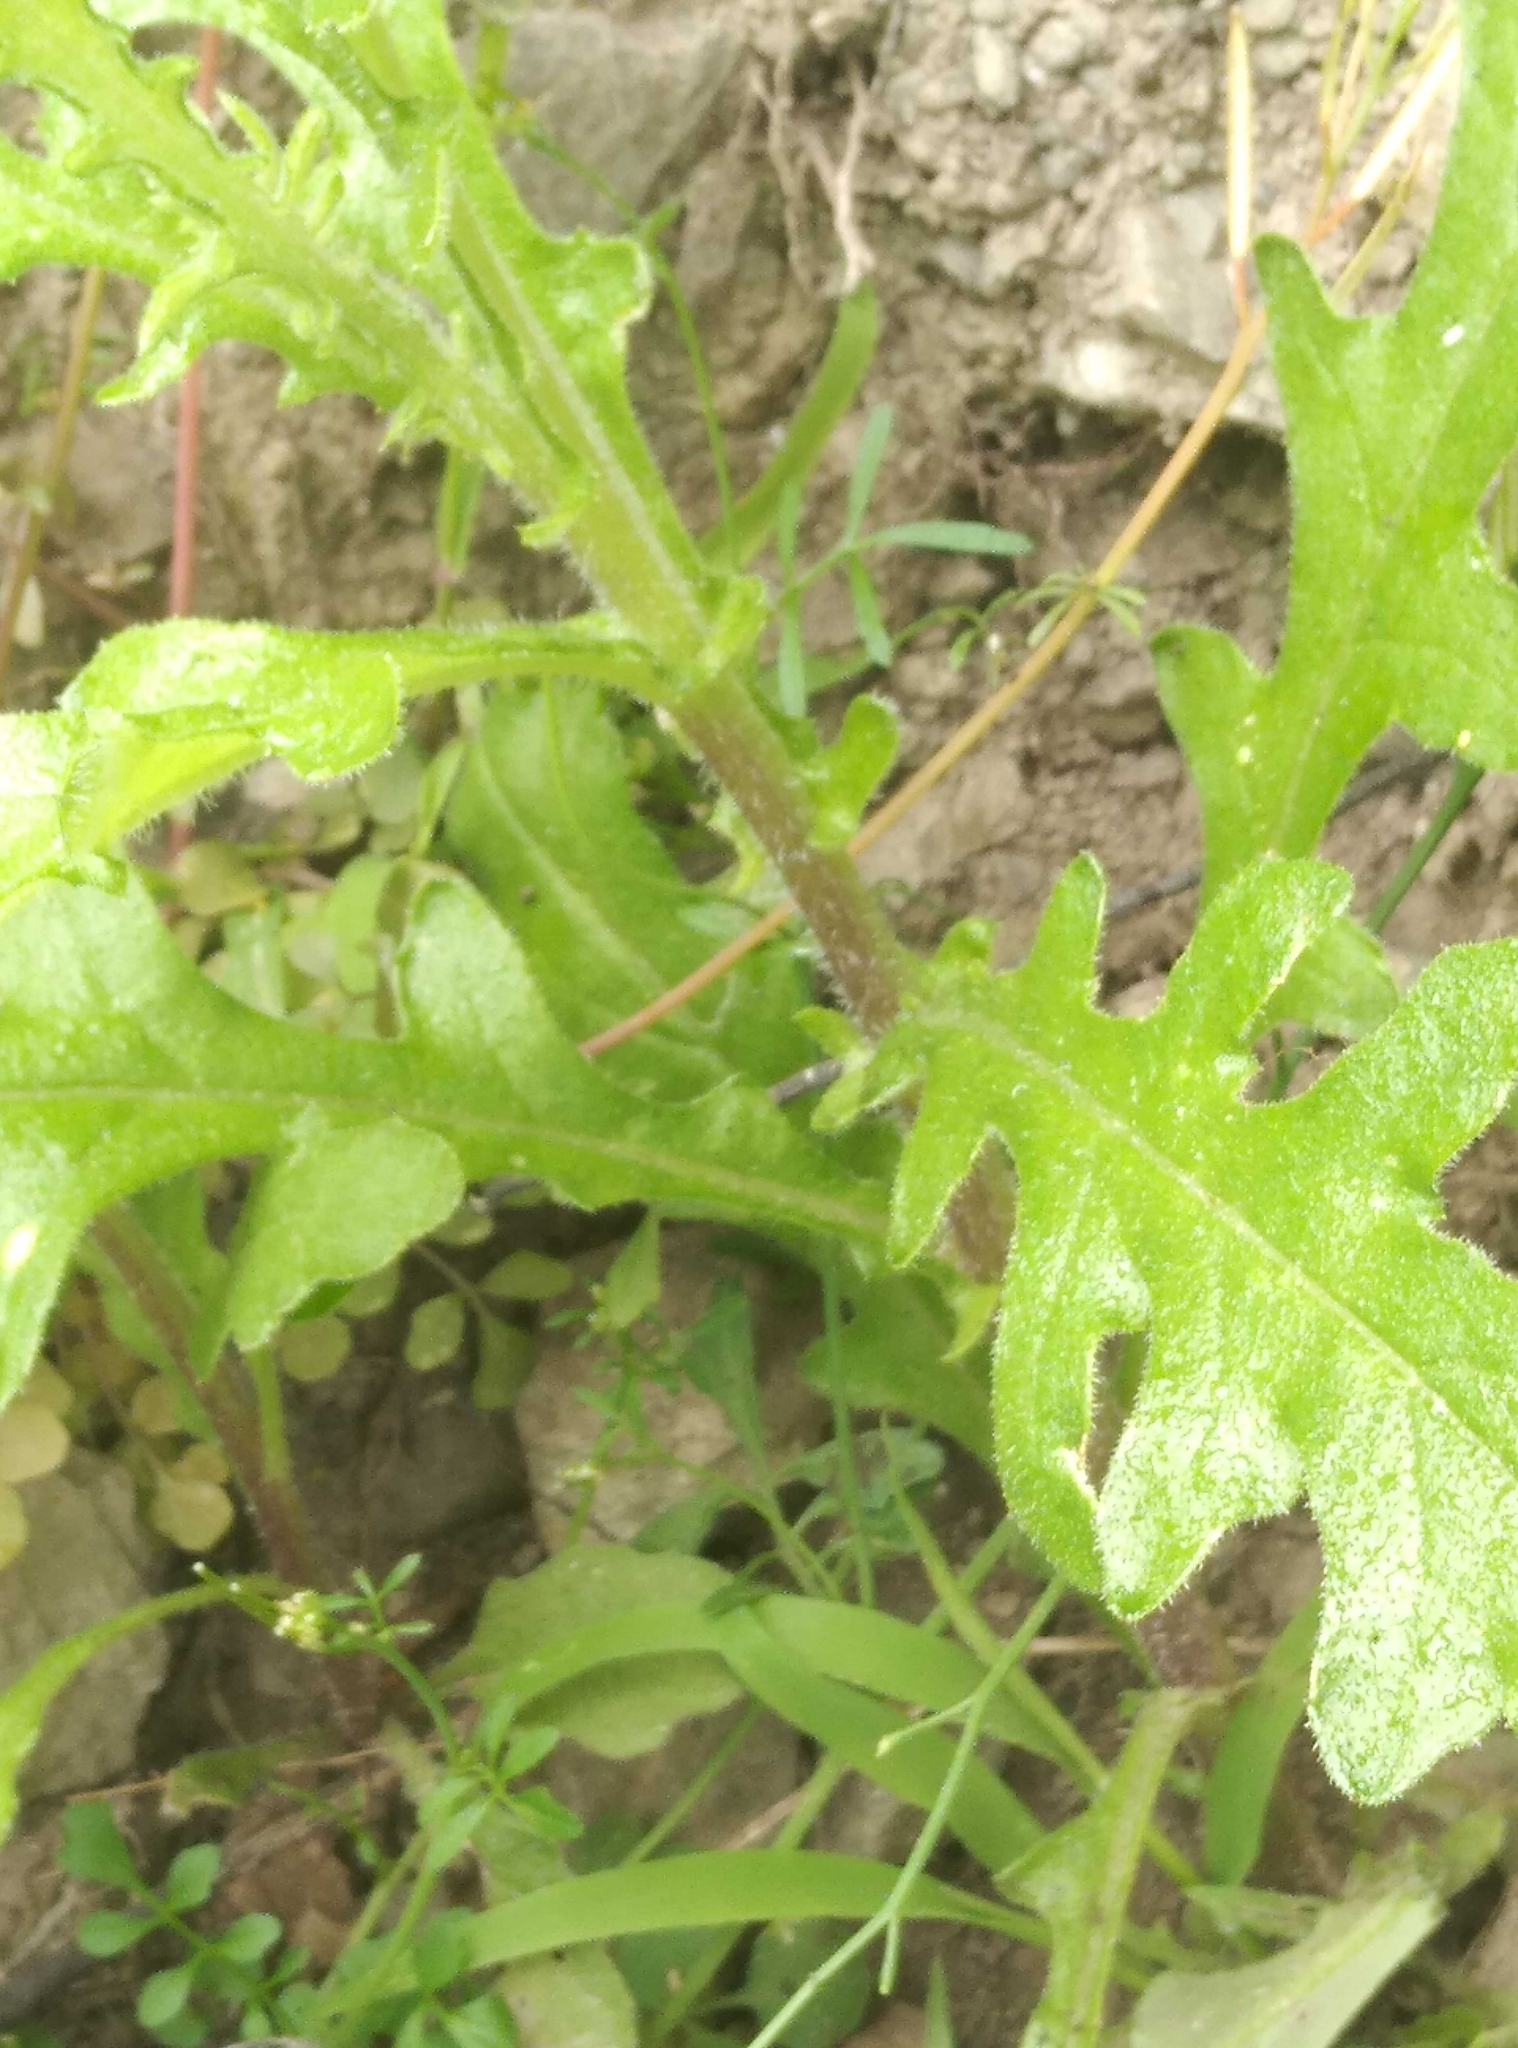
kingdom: Plantae
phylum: Tracheophyta
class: Magnoliopsida
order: Asterales
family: Asteraceae
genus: Senecio
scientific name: Senecio hispidulus
